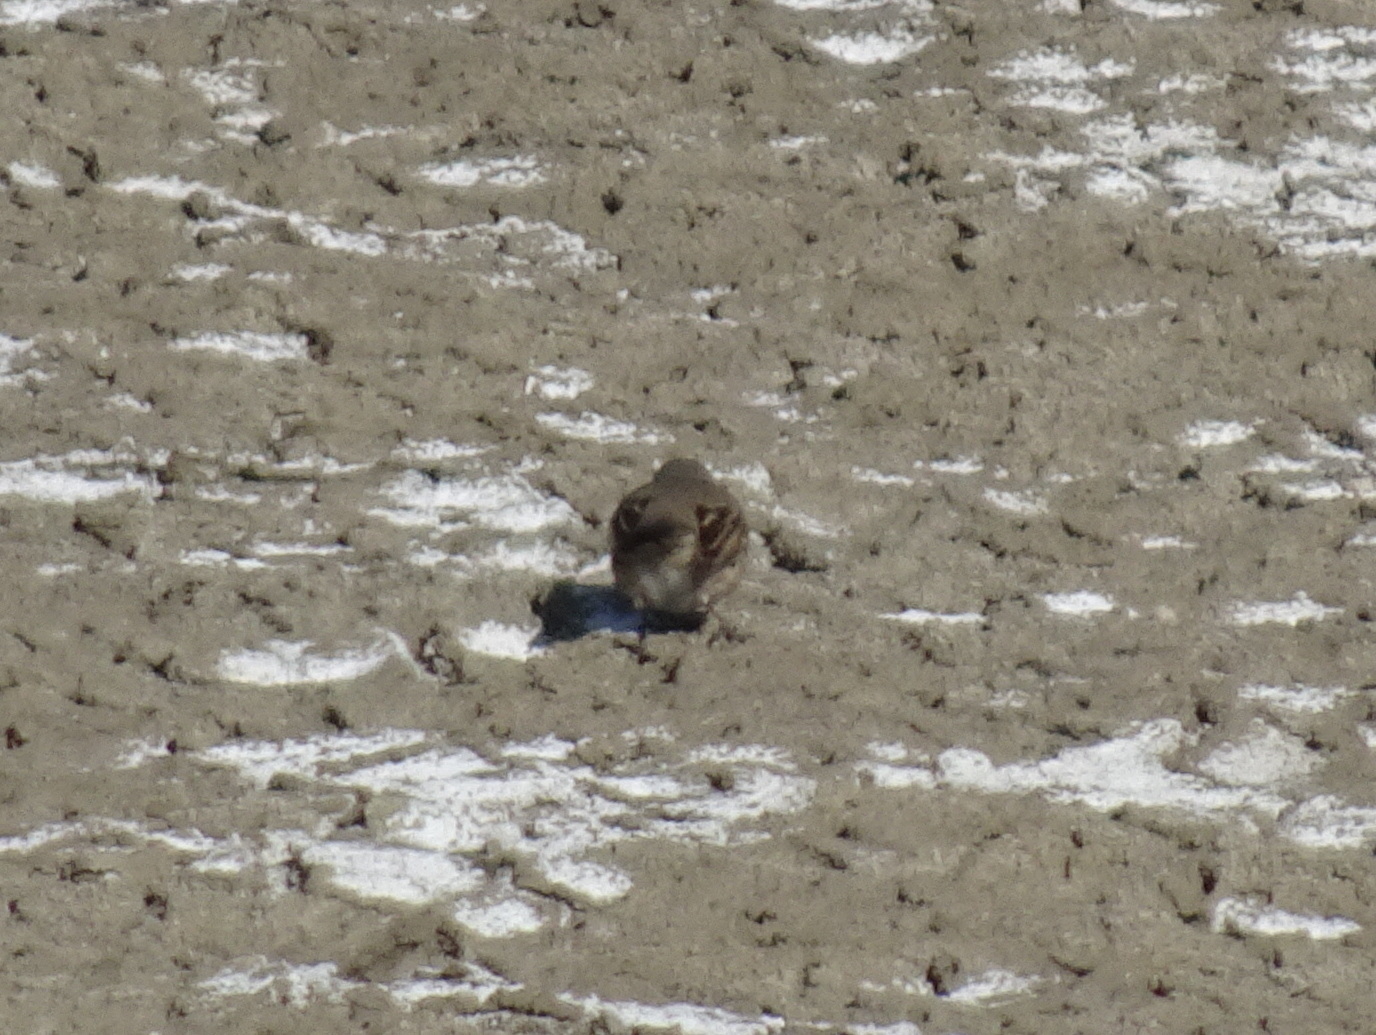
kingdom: Animalia
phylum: Chordata
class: Aves
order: Passeriformes
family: Passerellidae
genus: Artemisiospiza
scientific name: Artemisiospiza belli
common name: Bell's sparrow
